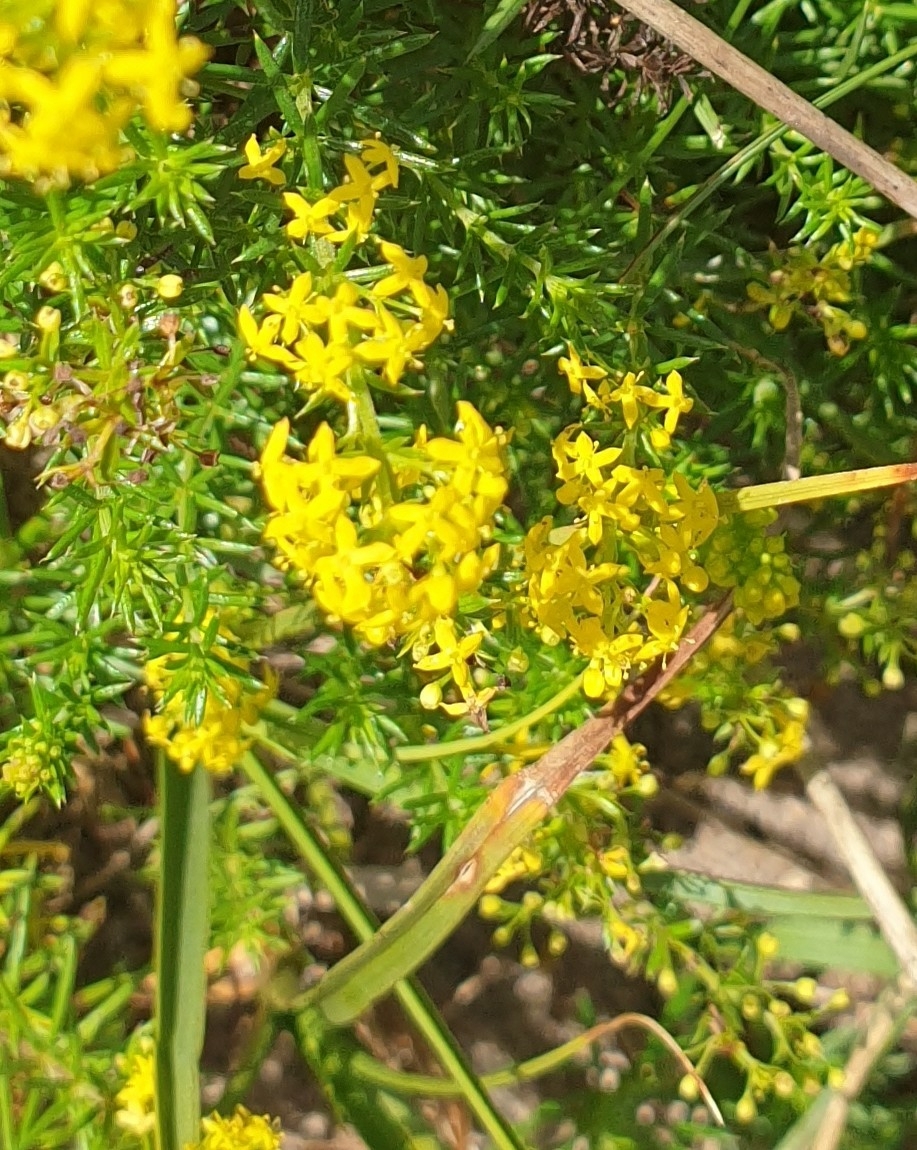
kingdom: Plantae
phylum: Tracheophyta
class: Magnoliopsida
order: Gentianales
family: Rubiaceae
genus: Galium
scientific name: Galium verum
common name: Lady's bedstraw
